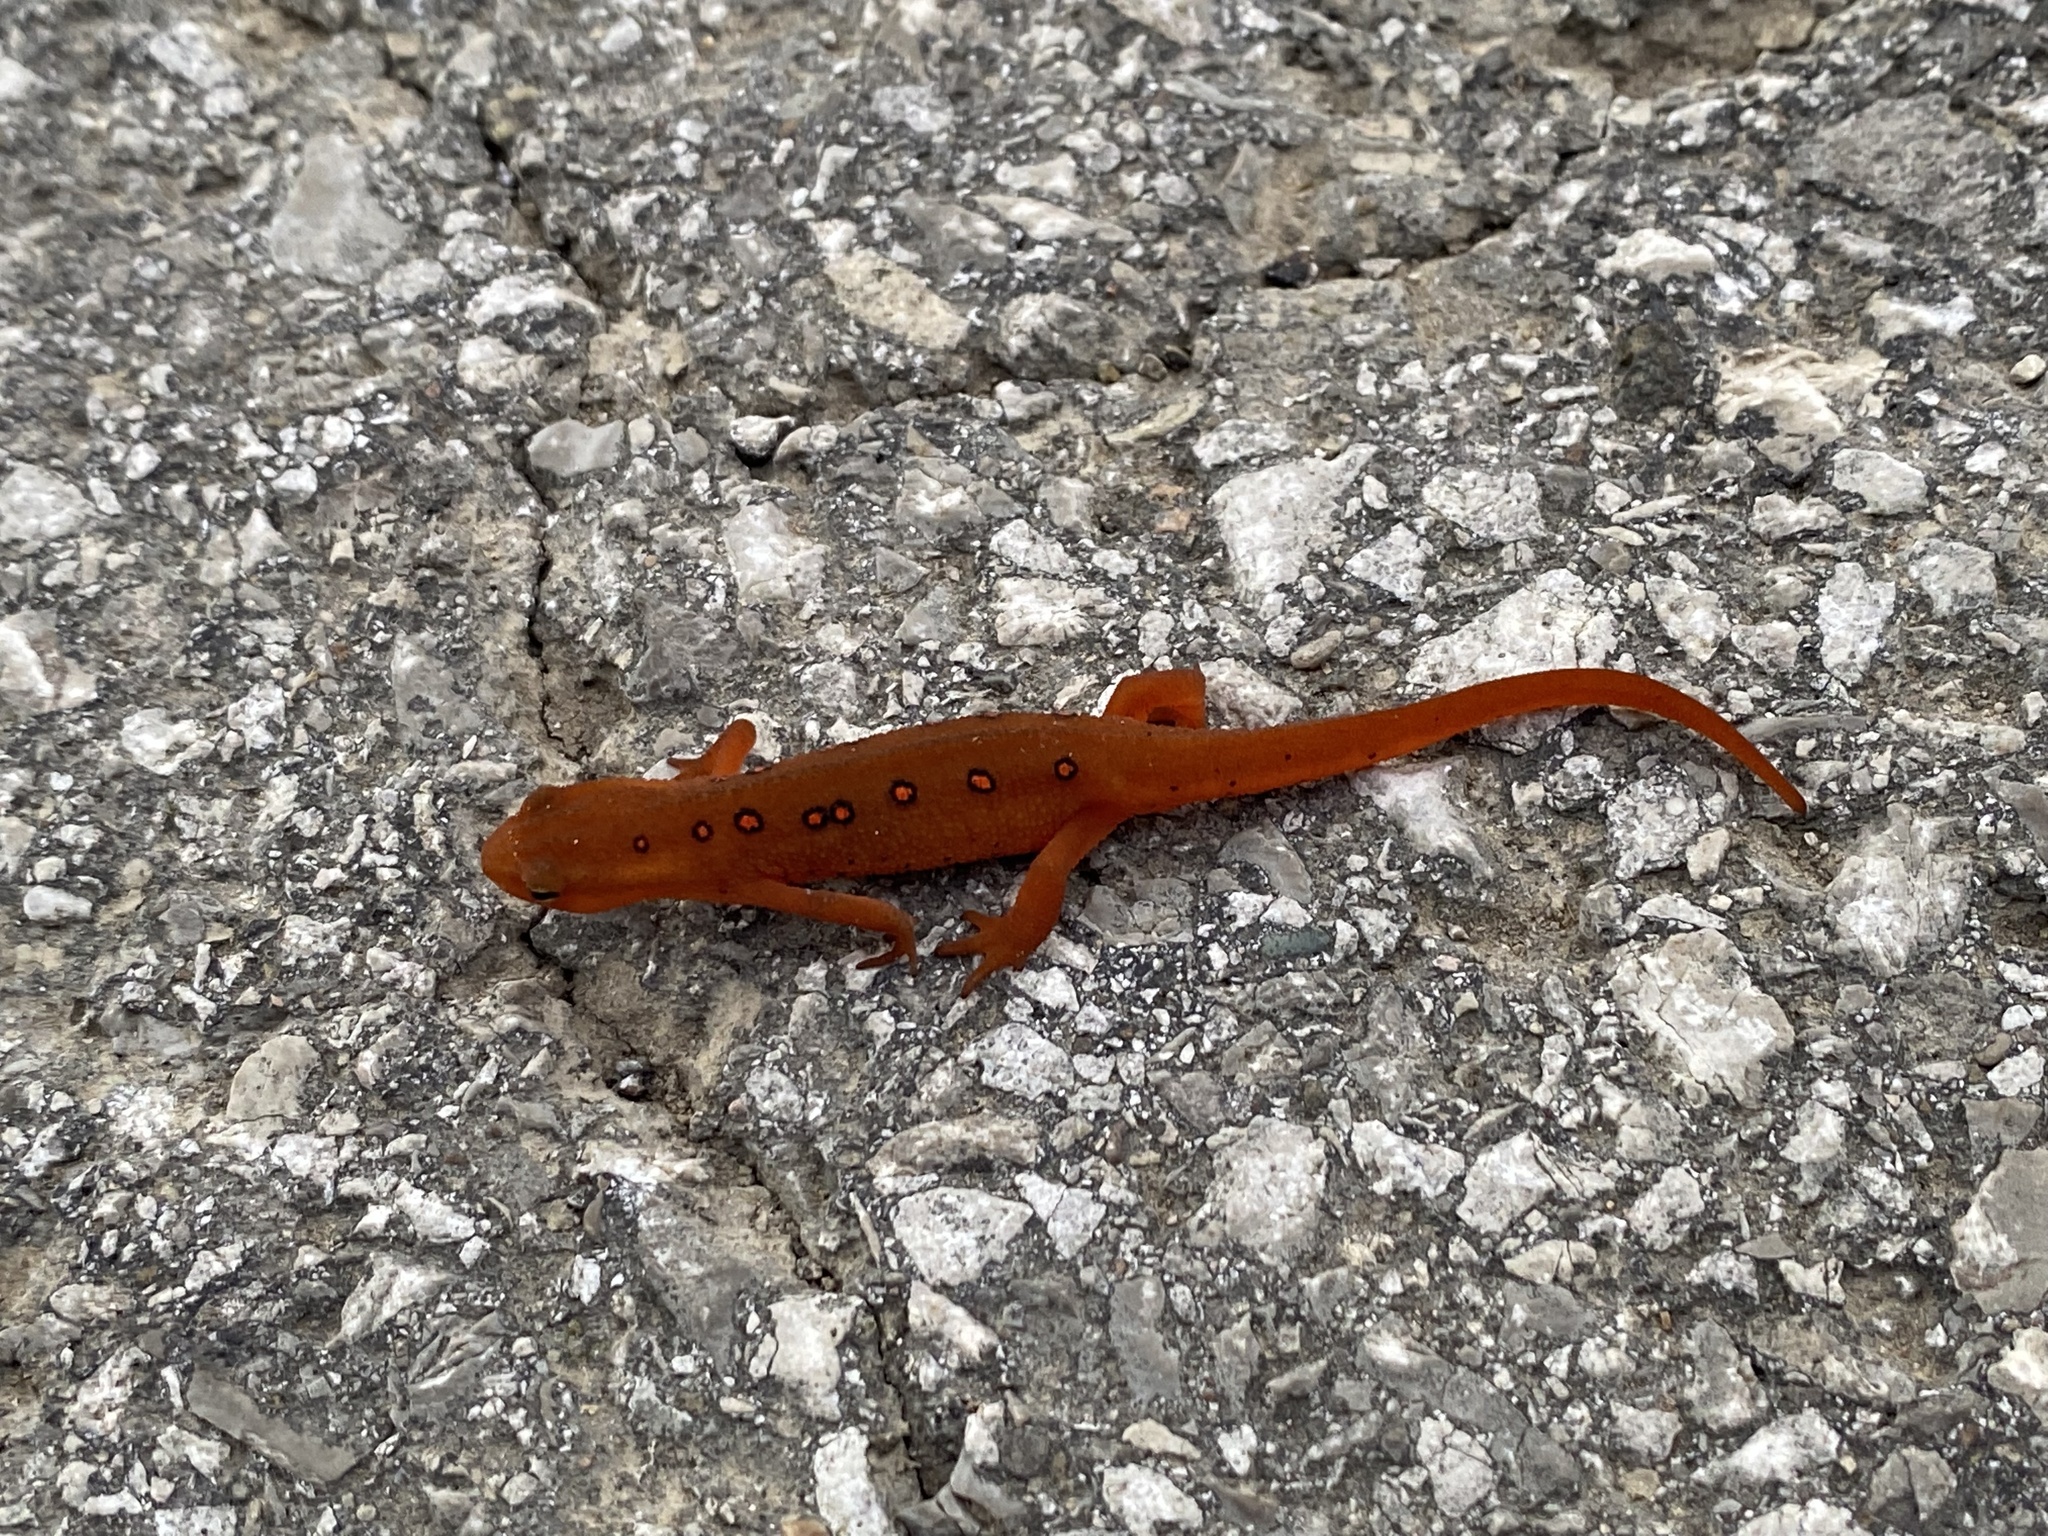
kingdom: Animalia
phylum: Chordata
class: Amphibia
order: Caudata
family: Salamandridae
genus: Notophthalmus
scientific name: Notophthalmus viridescens
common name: Eastern newt
